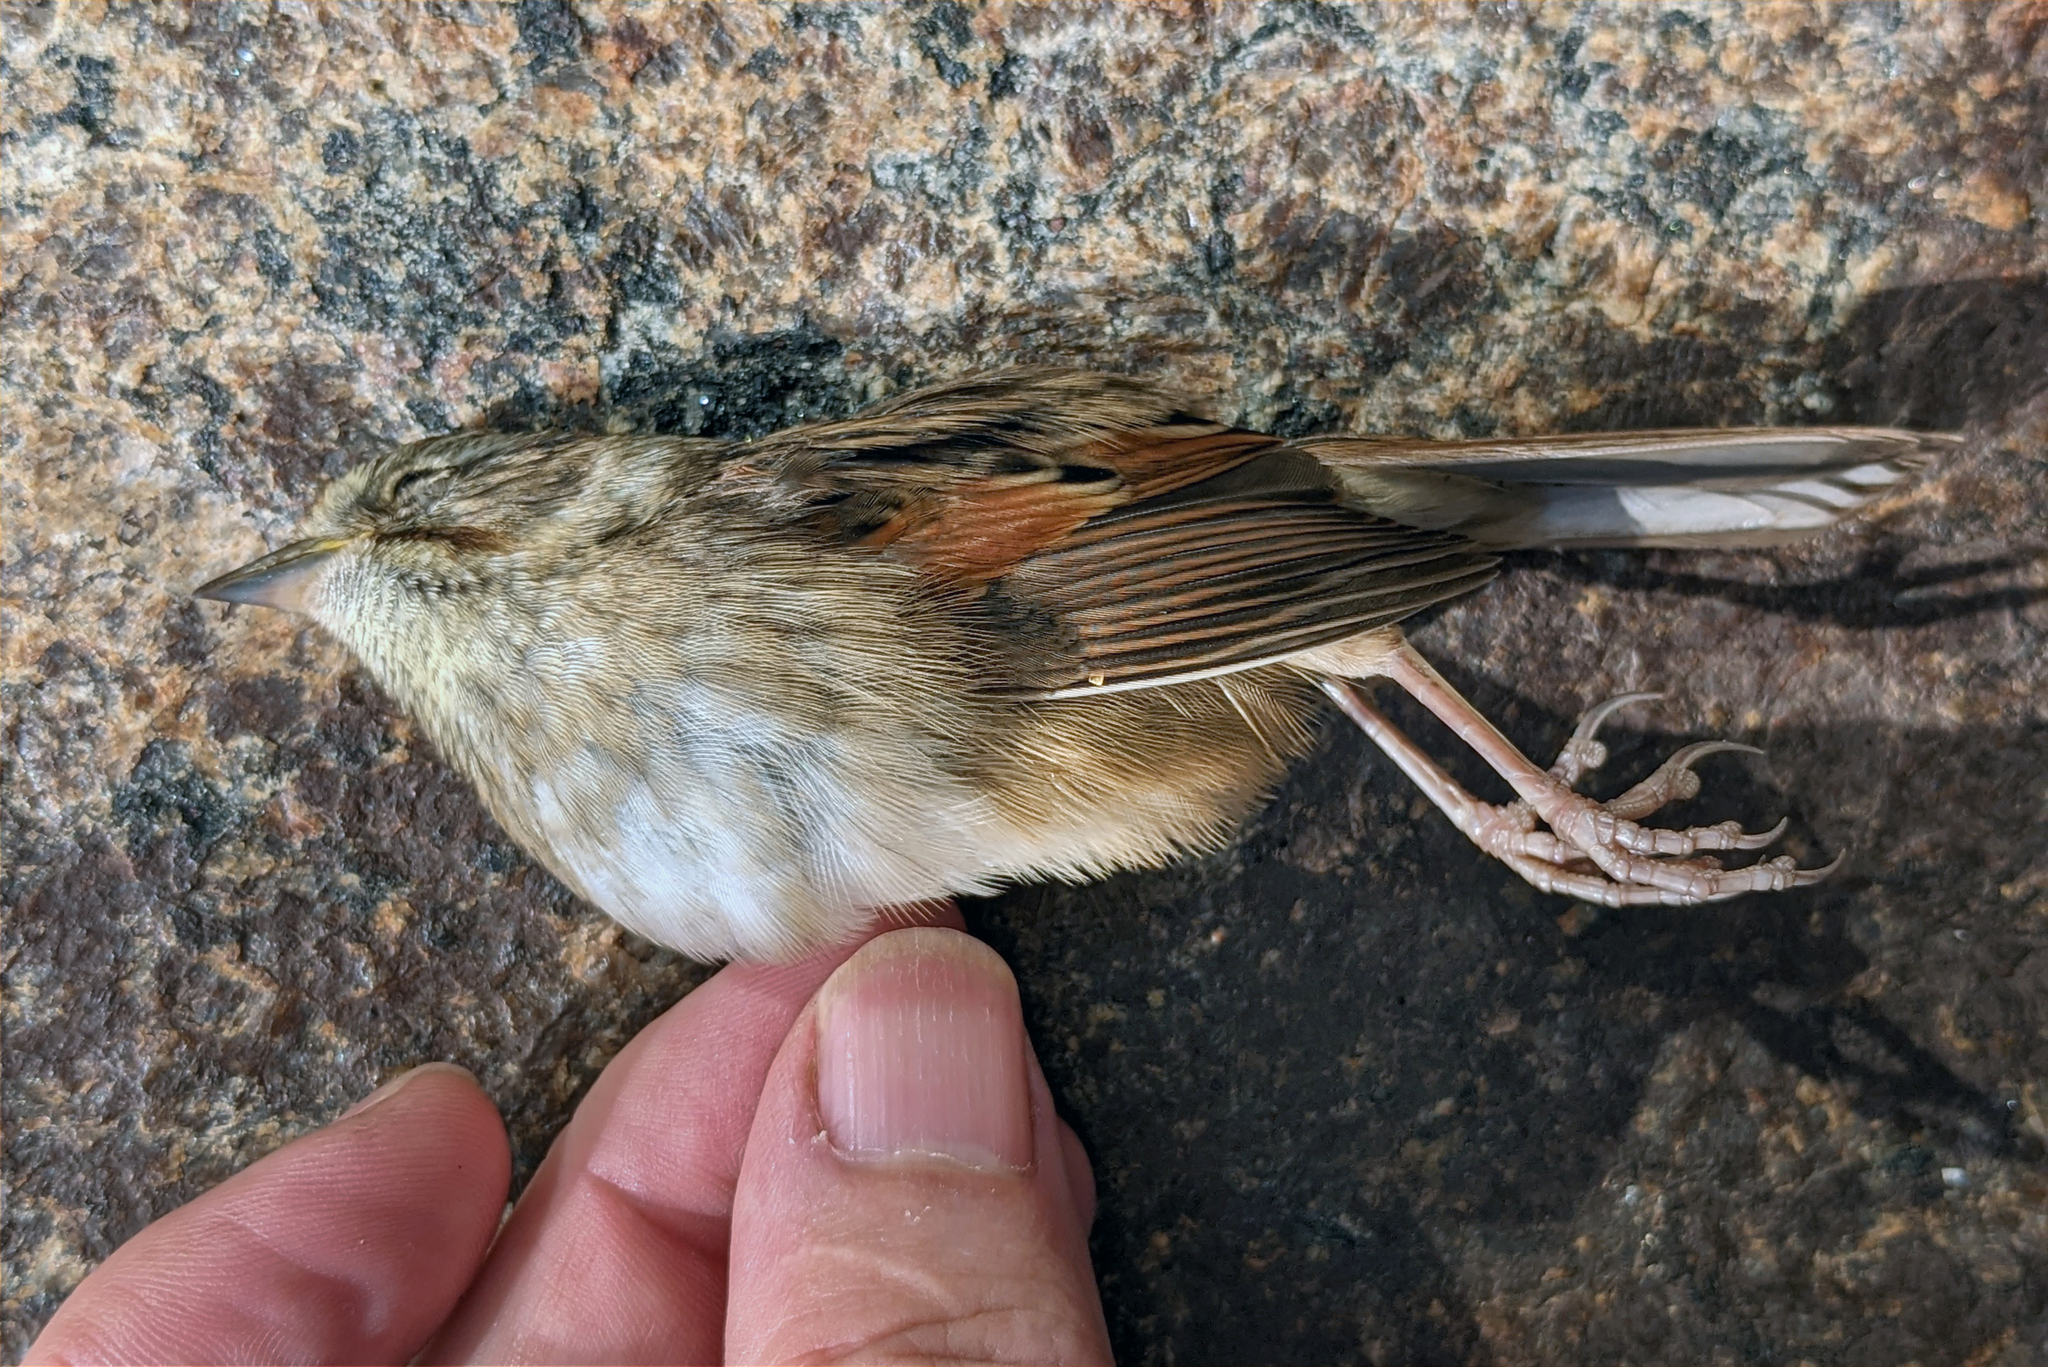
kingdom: Animalia
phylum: Chordata
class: Aves
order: Passeriformes
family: Passerellidae
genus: Melospiza
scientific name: Melospiza georgiana
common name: Swamp sparrow
